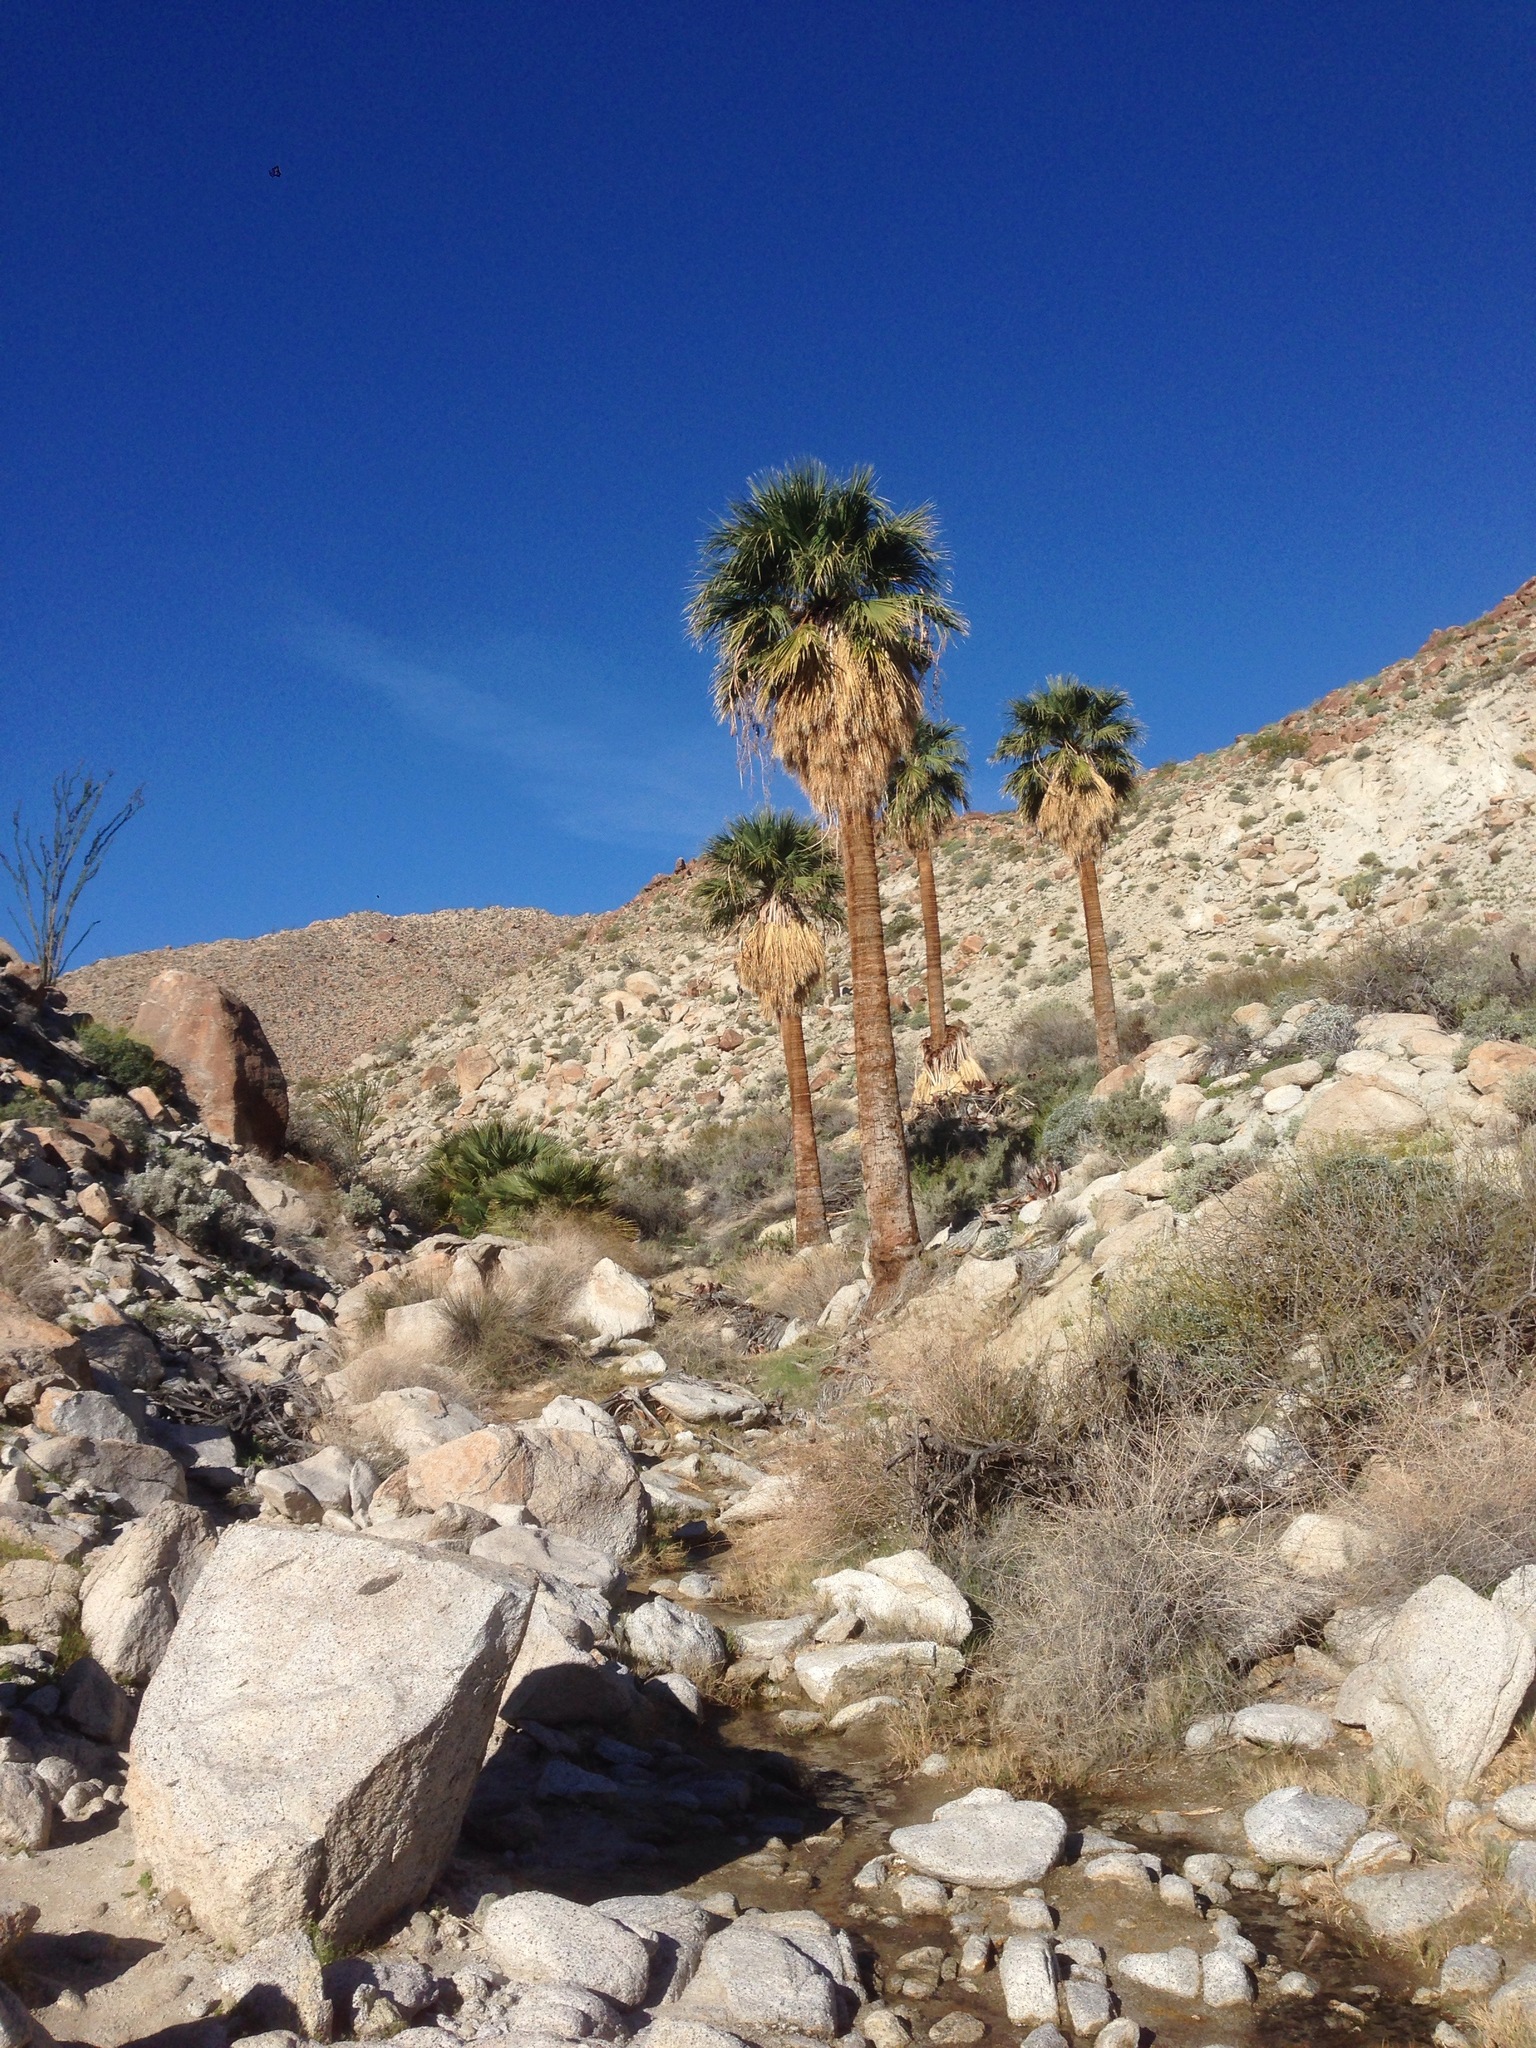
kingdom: Plantae
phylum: Tracheophyta
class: Liliopsida
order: Arecales
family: Arecaceae
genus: Washingtonia
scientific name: Washingtonia filifera
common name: California fan palm
